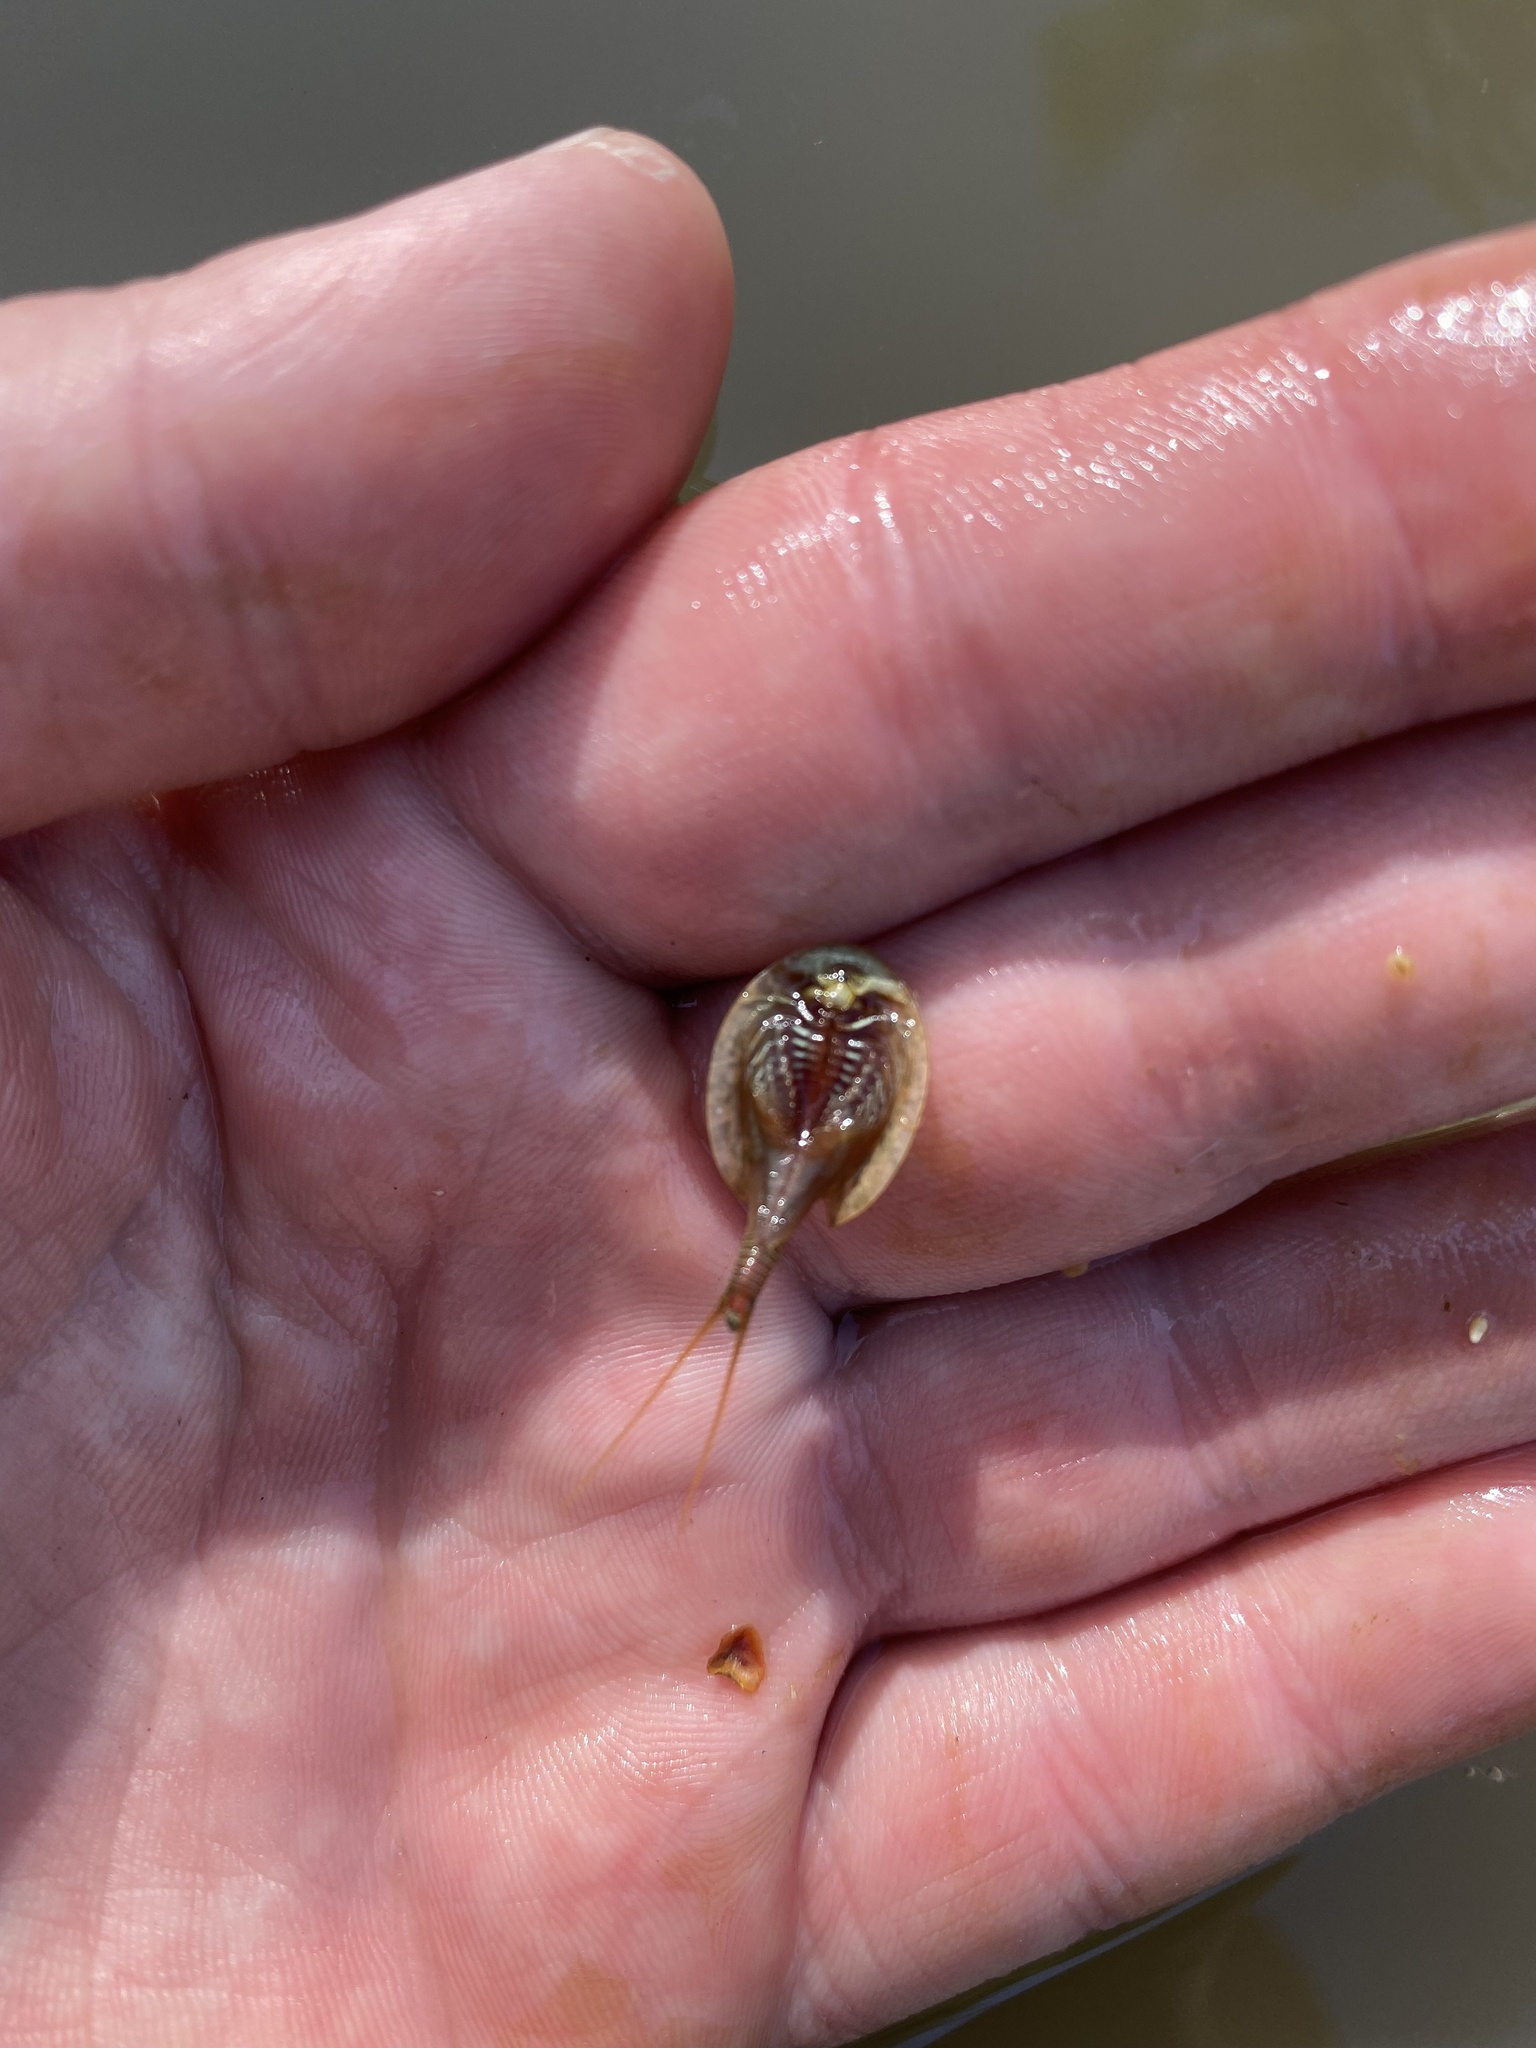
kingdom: Animalia
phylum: Arthropoda
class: Branchiopoda
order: Notostraca
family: Triopsidae
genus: Triops
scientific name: Triops cancriformis
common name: Tadpole shrimp
